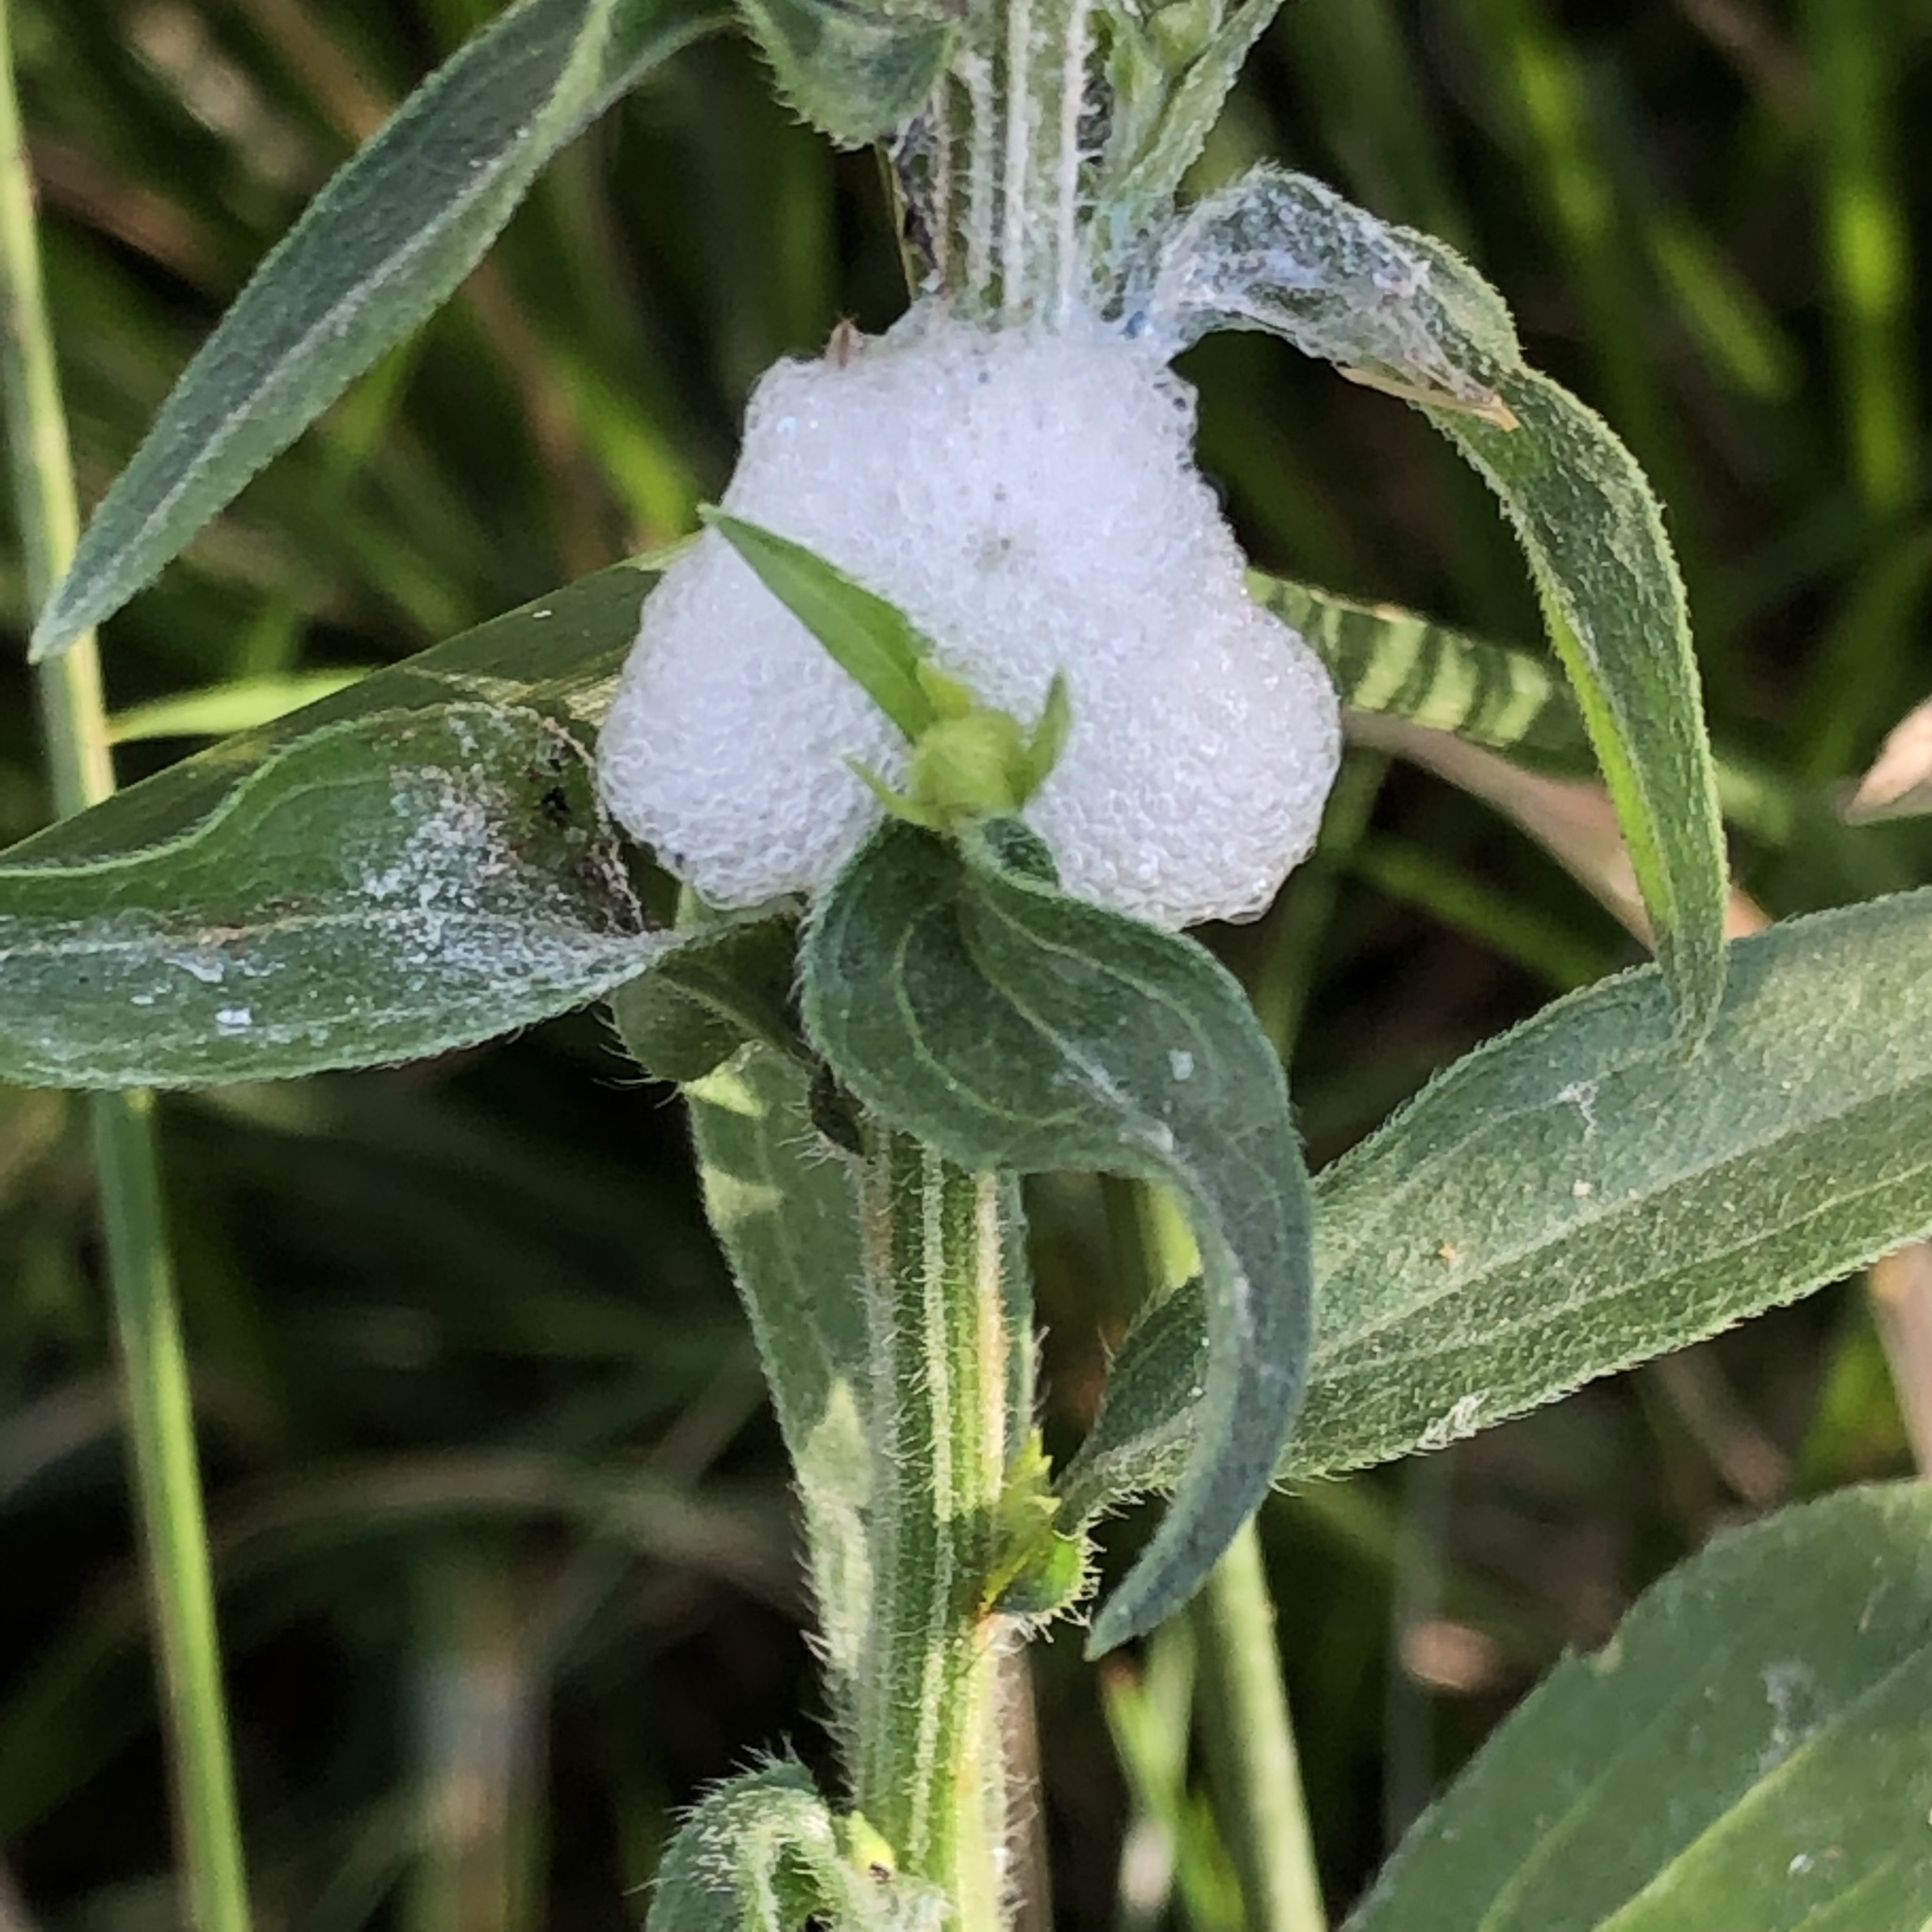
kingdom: Animalia
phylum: Arthropoda
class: Insecta
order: Hemiptera
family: Aphrophoridae
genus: Philaenus
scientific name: Philaenus spumarius
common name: Meadow spittlebug
